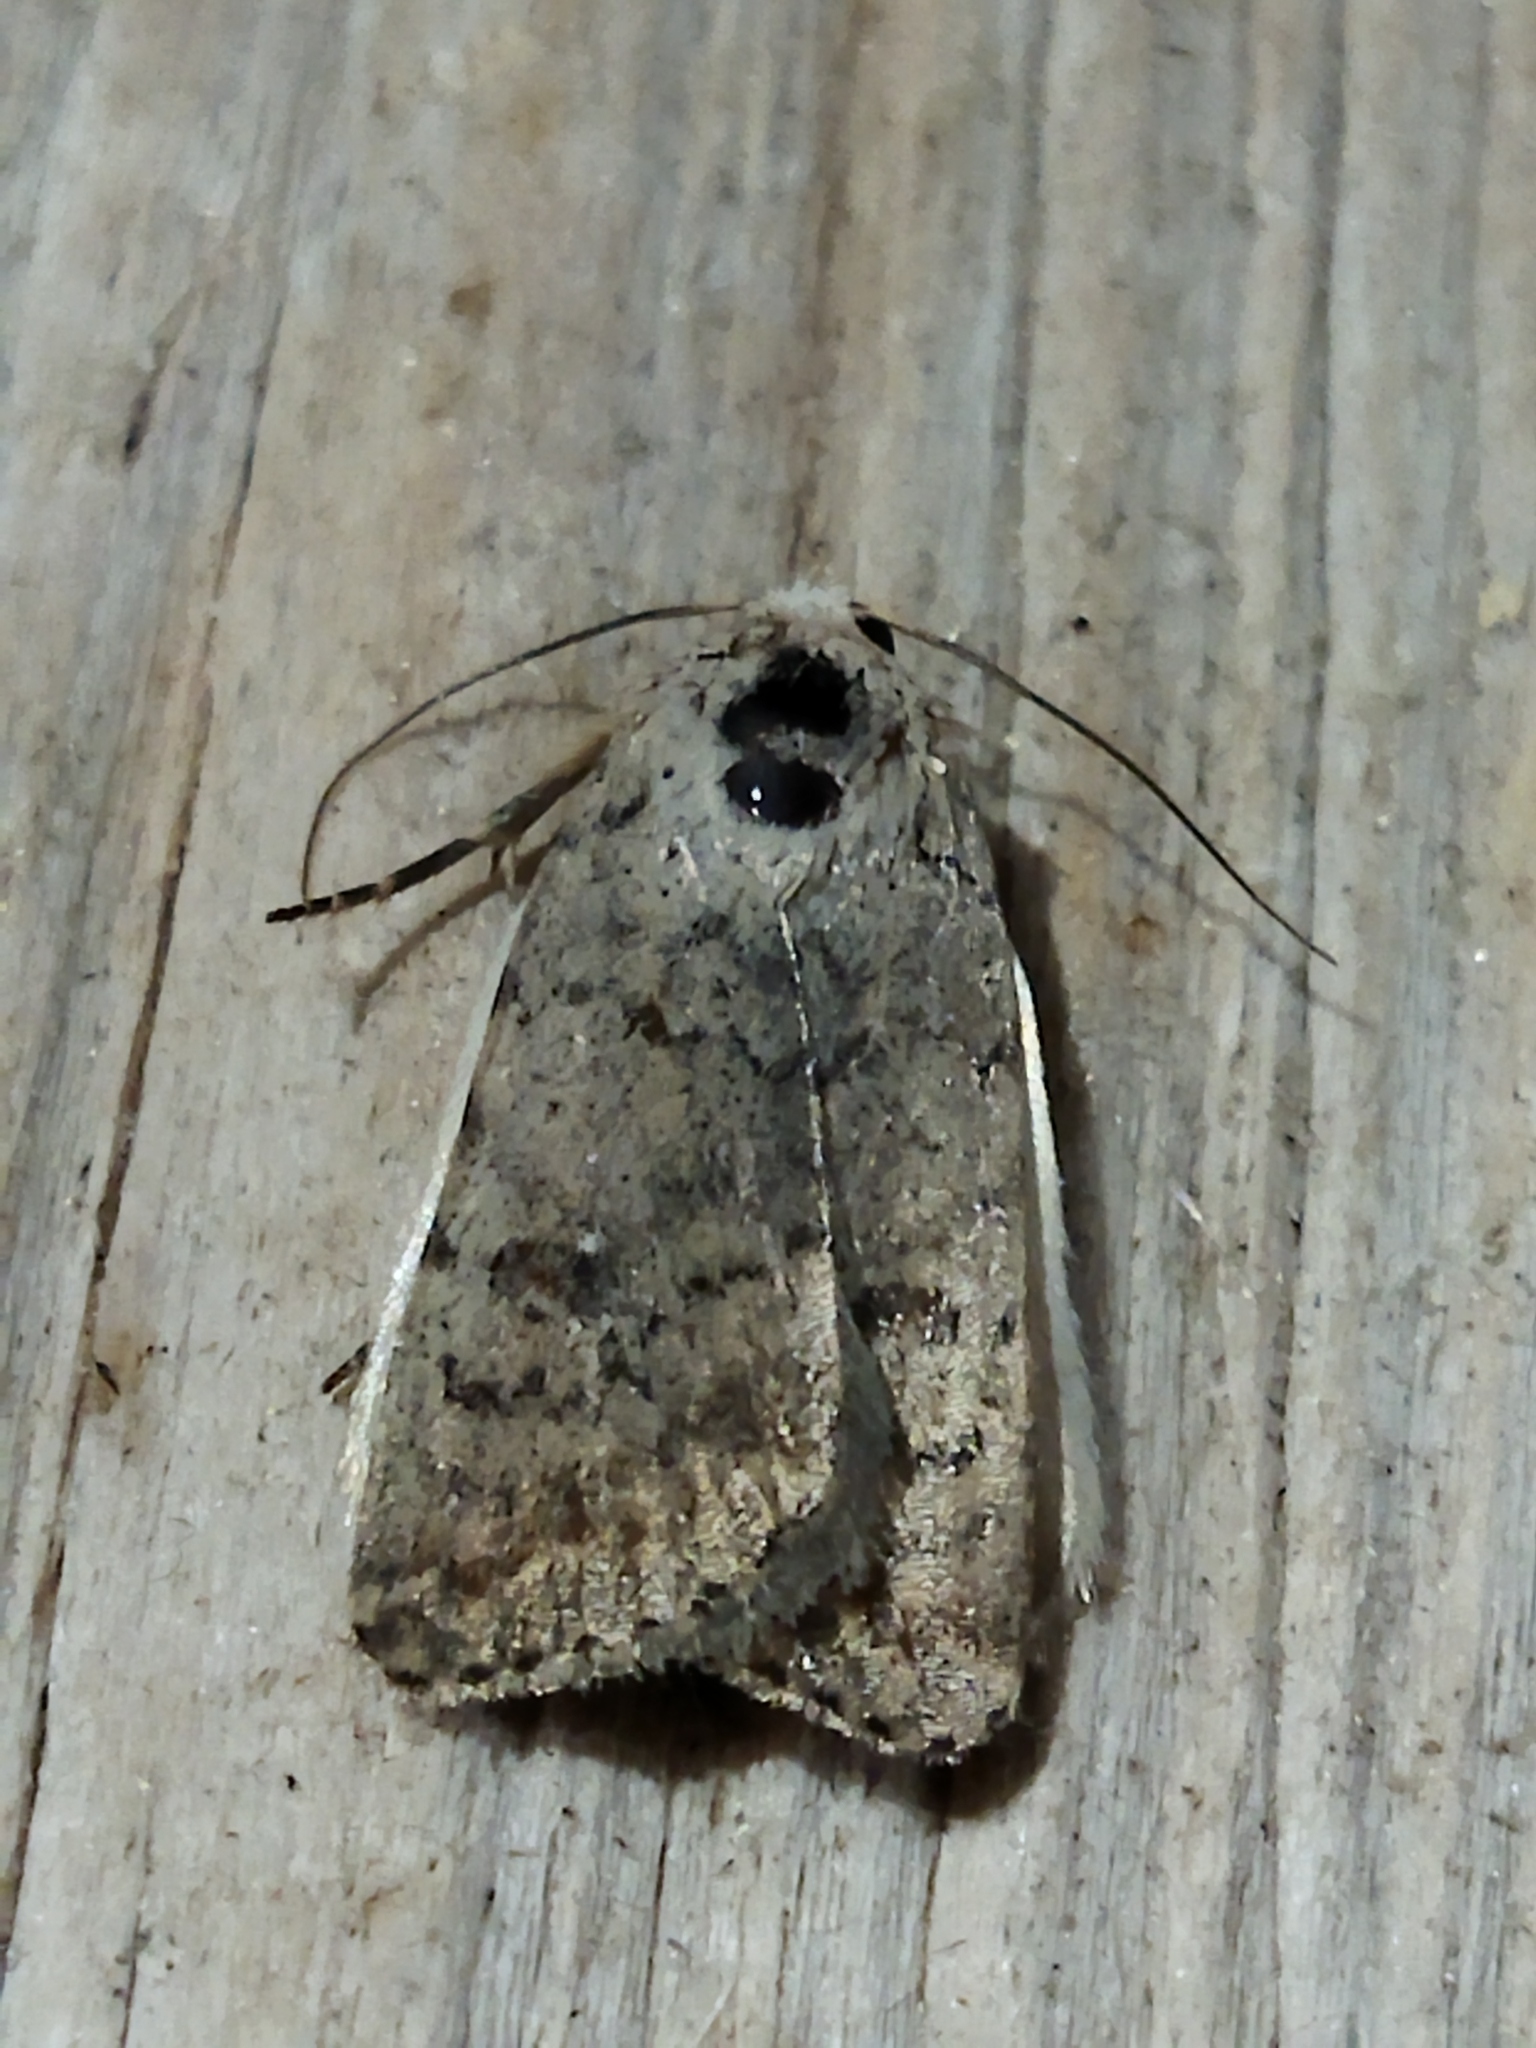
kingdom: Animalia
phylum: Arthropoda
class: Insecta
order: Lepidoptera
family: Noctuidae
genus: Caradrina
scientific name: Caradrina clavipalpis
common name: Pale mottled willow
